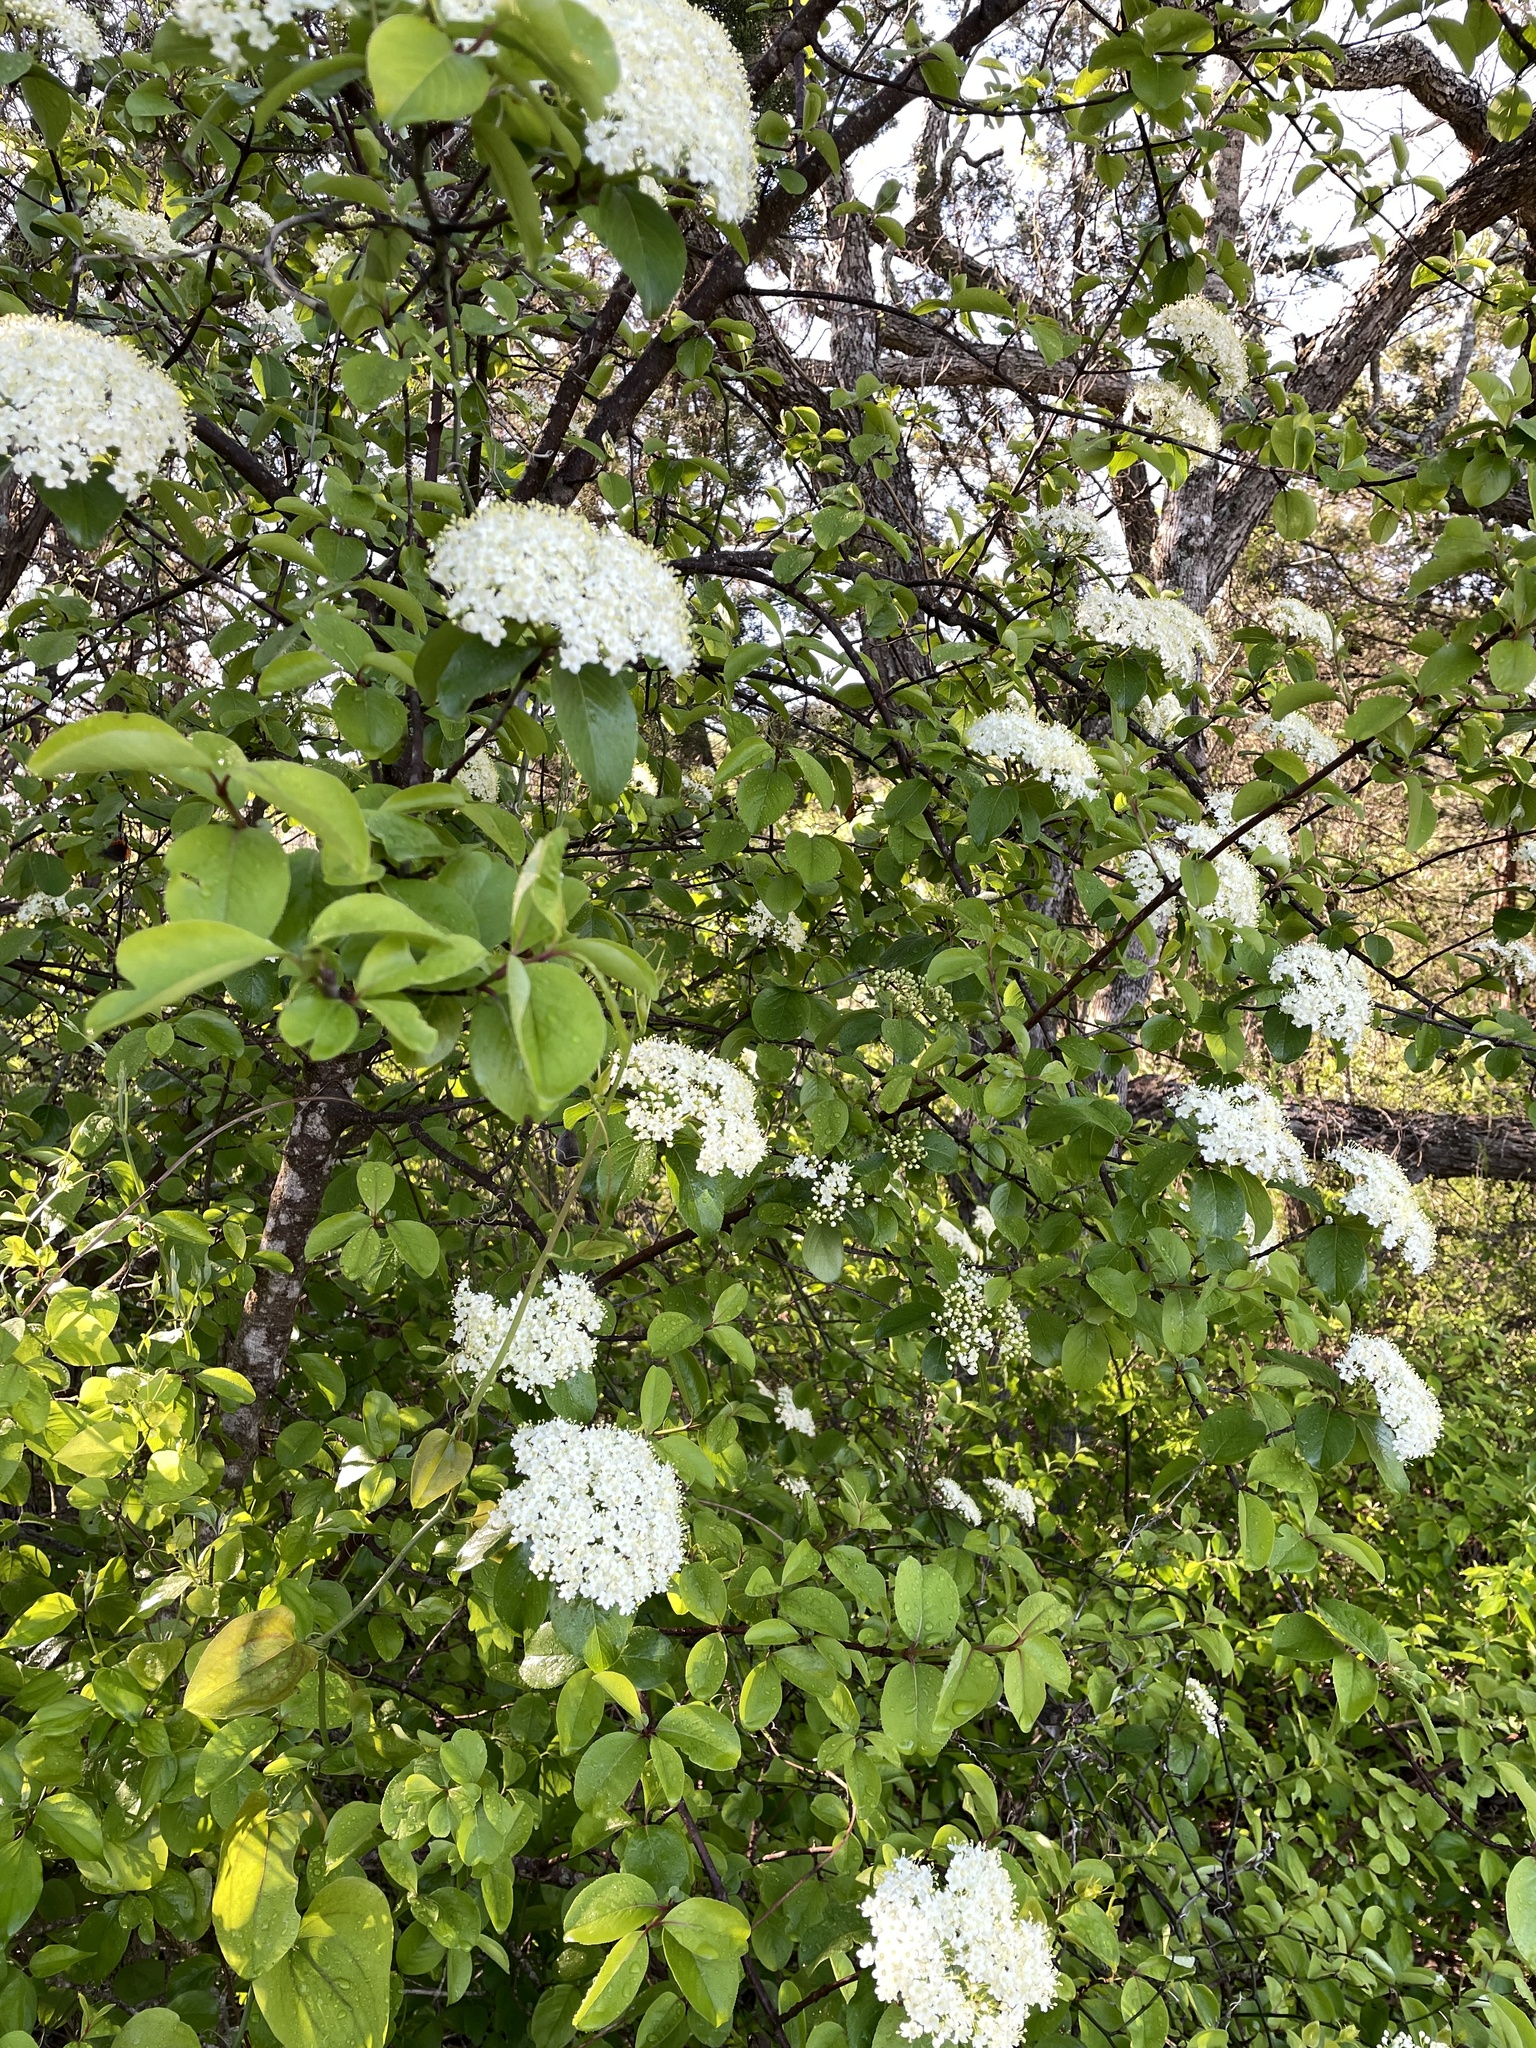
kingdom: Plantae
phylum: Tracheophyta
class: Magnoliopsida
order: Dipsacales
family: Viburnaceae
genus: Viburnum
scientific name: Viburnum rufidulum
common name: Blue haw
